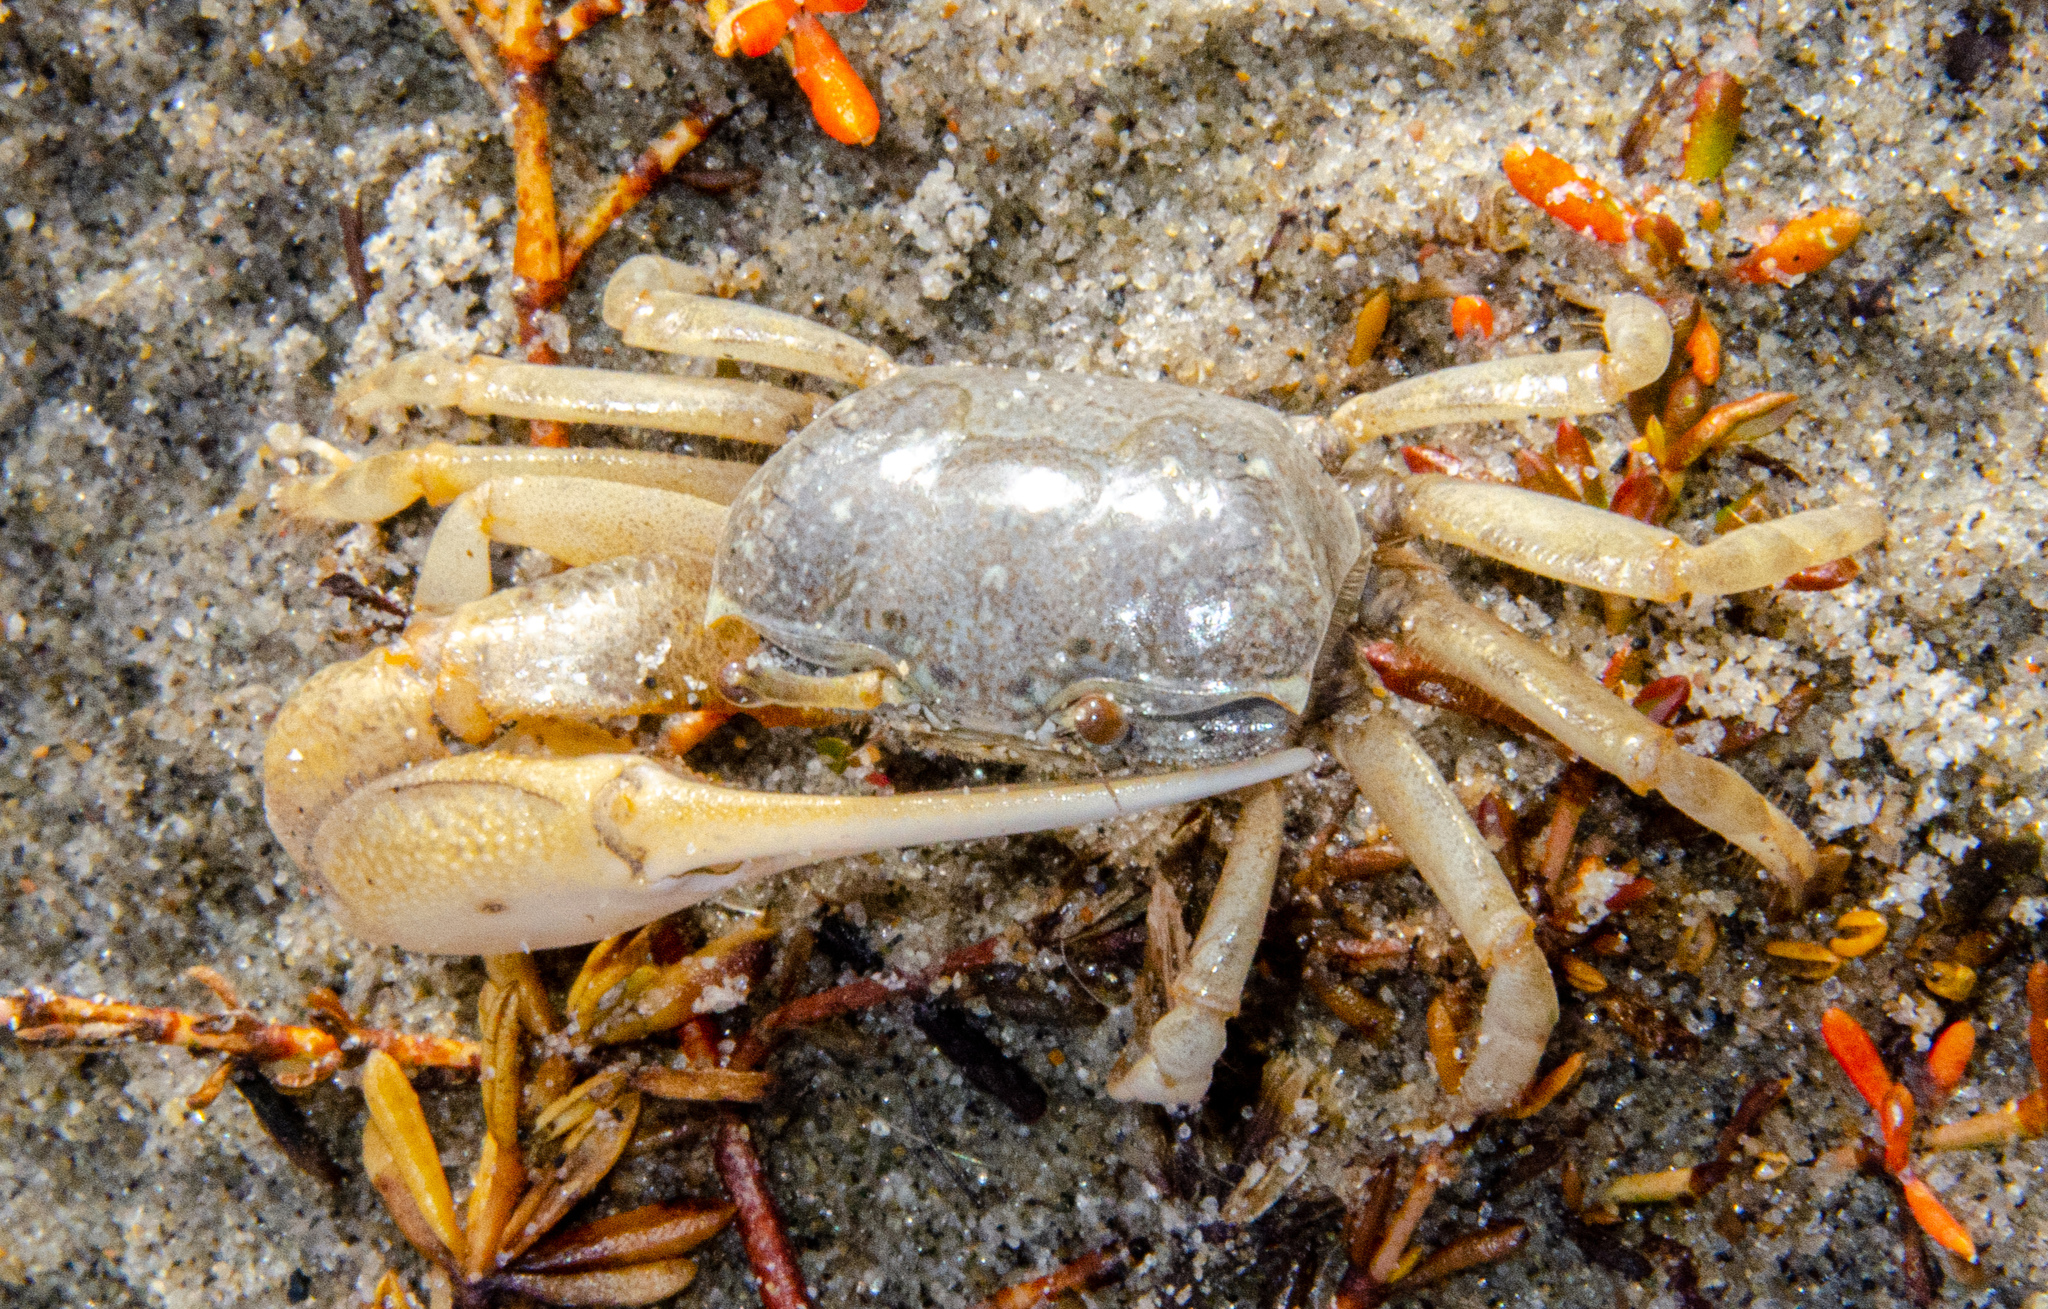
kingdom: Animalia
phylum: Arthropoda
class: Malacostraca
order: Decapoda
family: Ocypodidae
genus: Leptuca
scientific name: Leptuca crenulata
